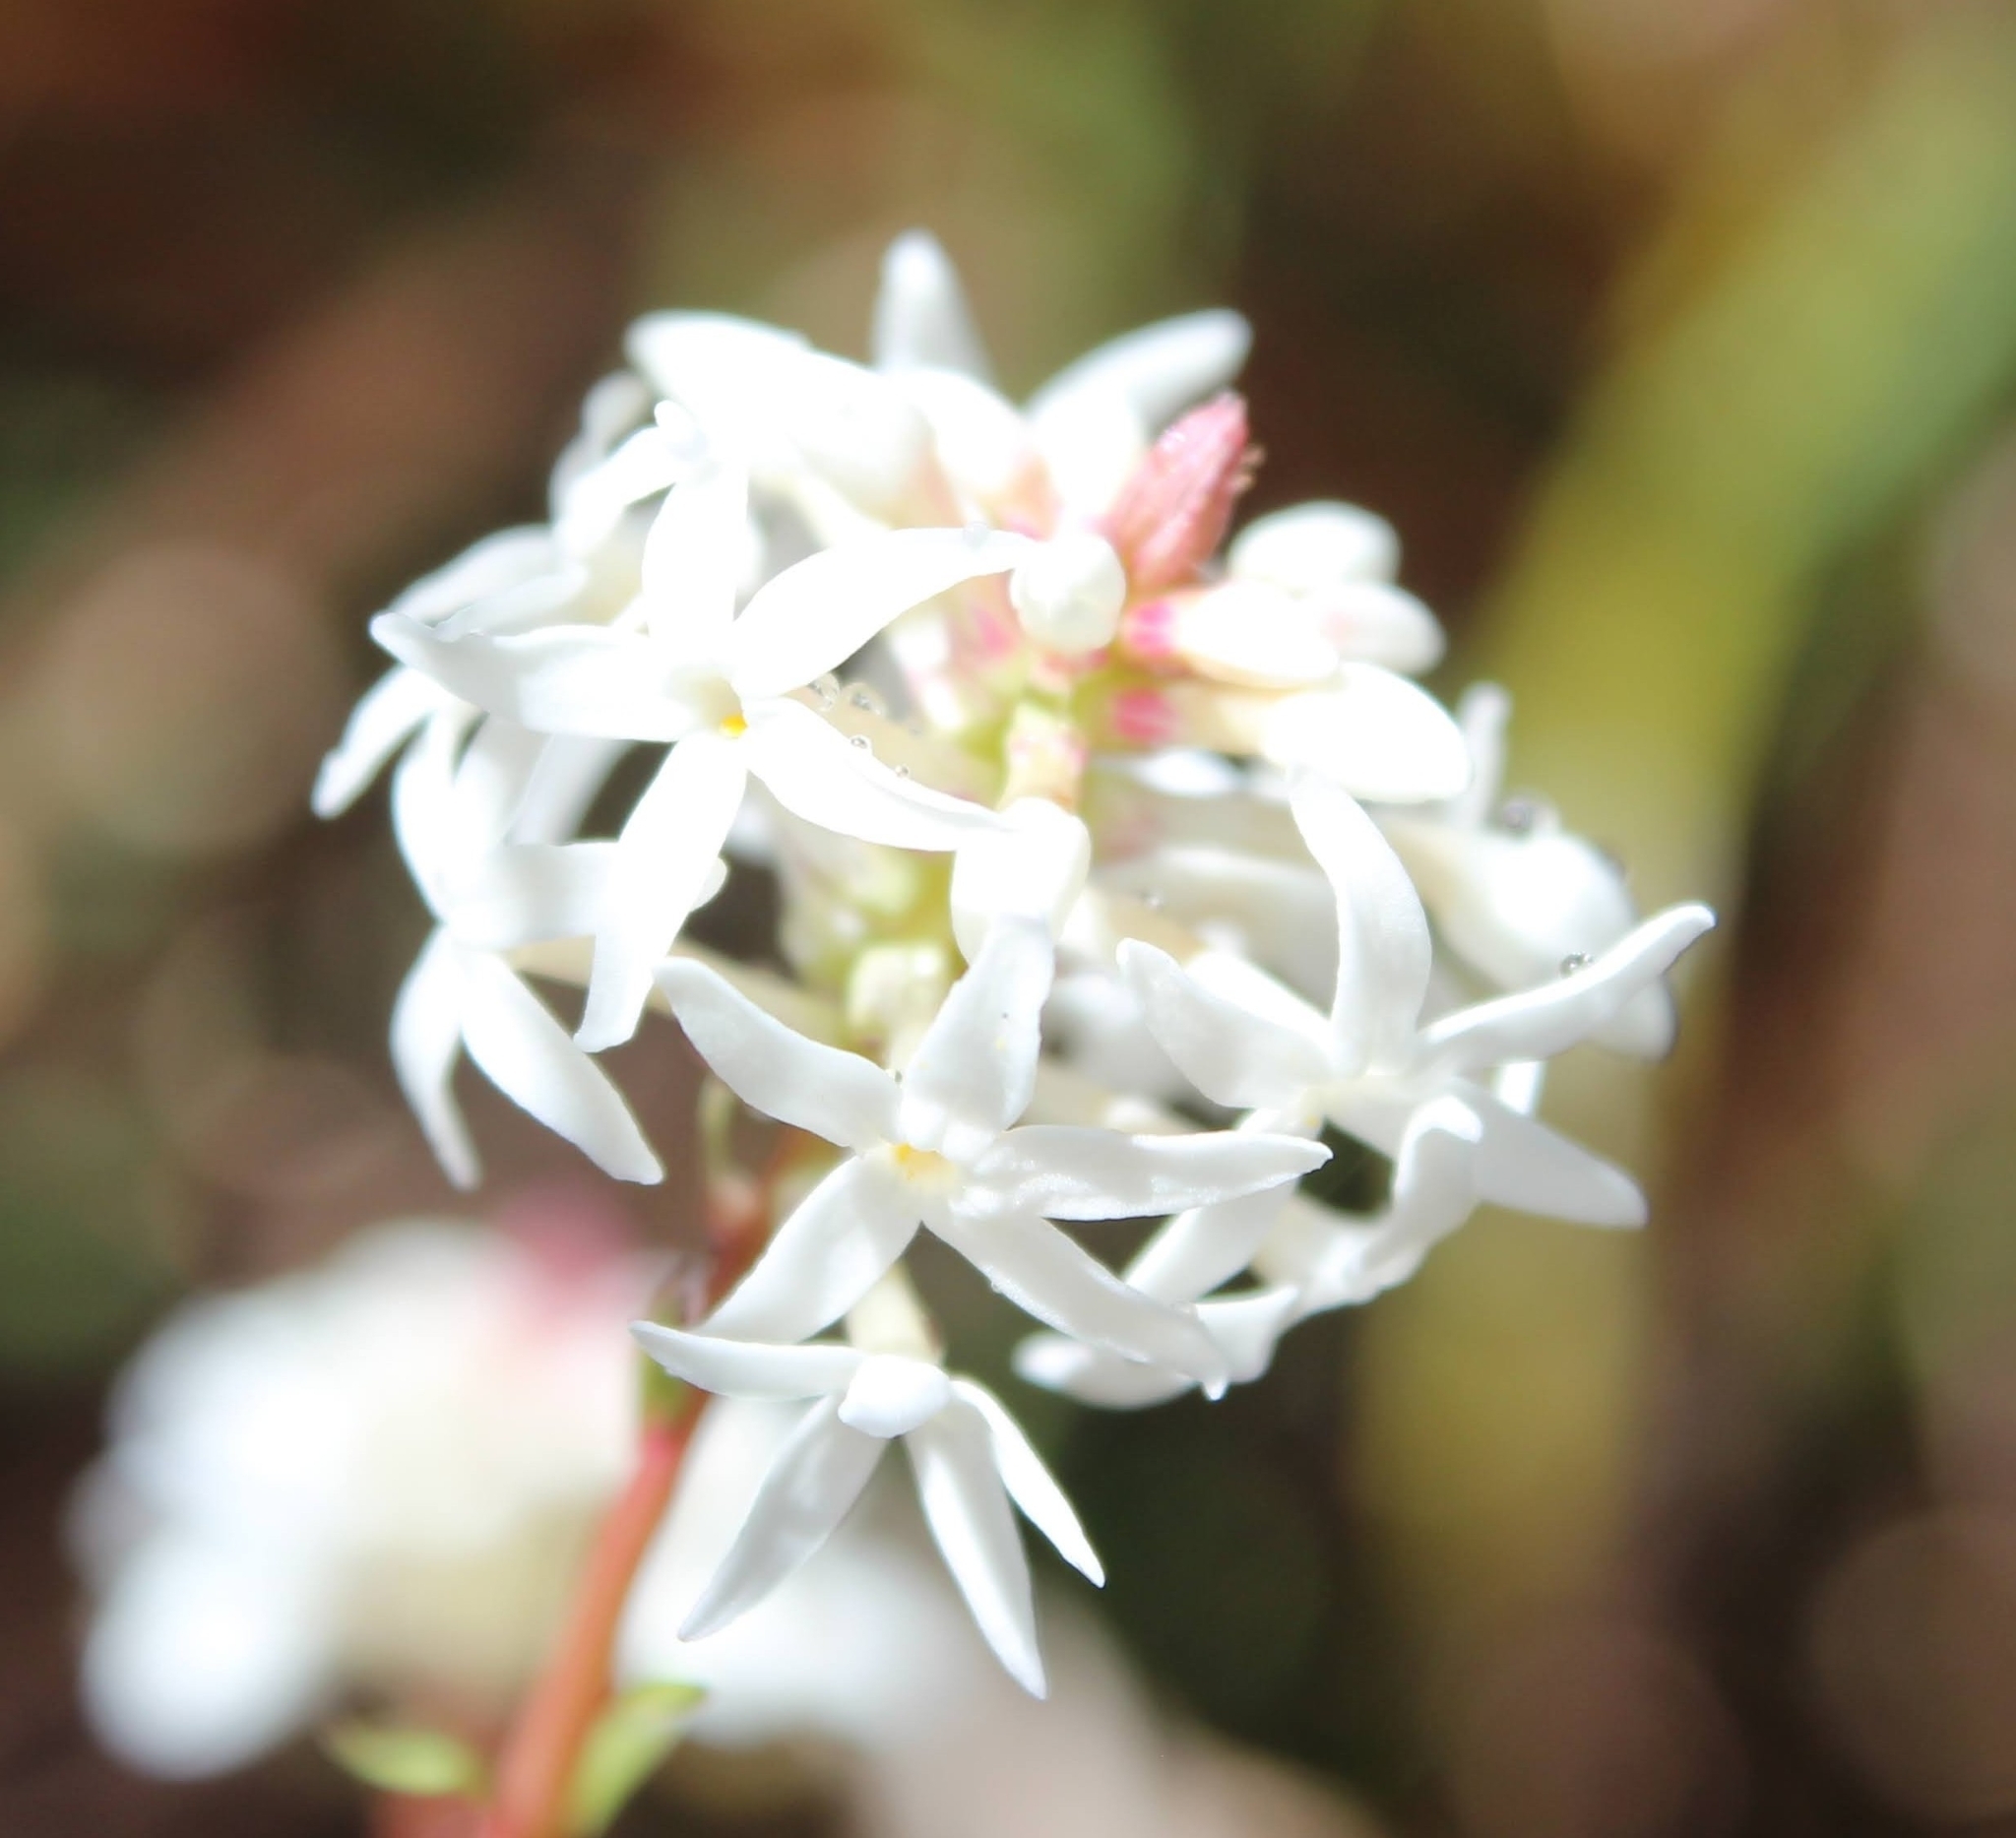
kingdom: Plantae
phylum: Tracheophyta
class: Magnoliopsida
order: Celastrales
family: Celastraceae
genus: Stackhousia
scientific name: Stackhousia monogyna
